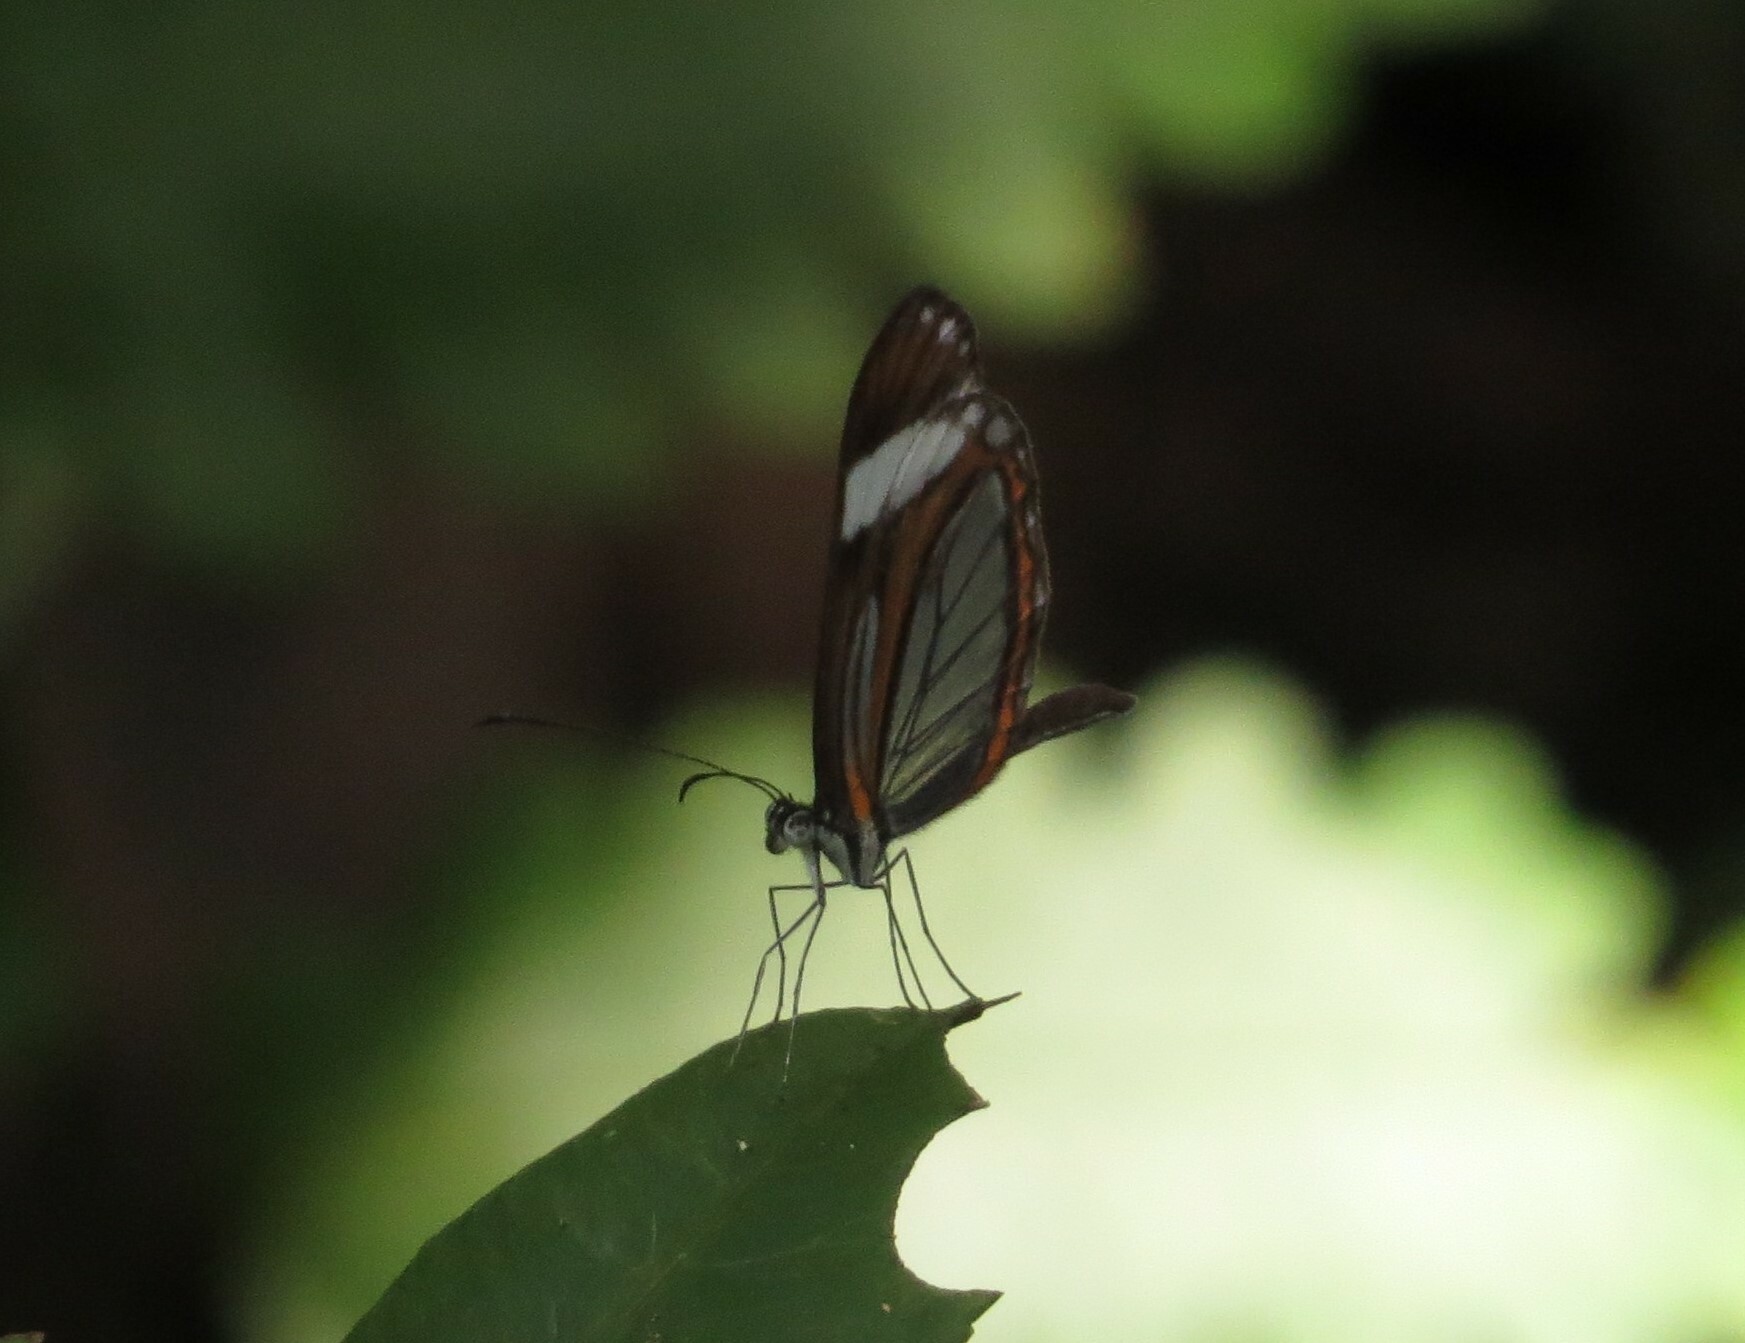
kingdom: Animalia
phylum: Arthropoda
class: Insecta
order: Lepidoptera
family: Pieridae
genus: Dismorphia
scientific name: Dismorphia theucharila
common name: Clearwing mimic-white
